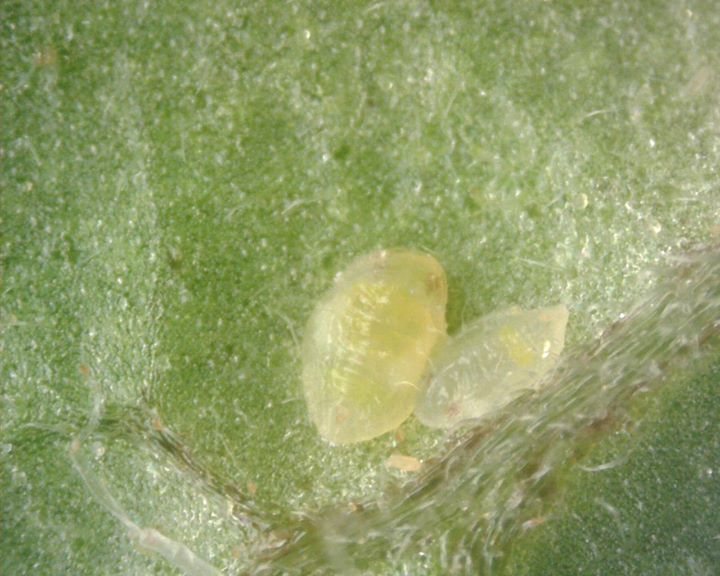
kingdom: Animalia
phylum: Arthropoda
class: Insecta
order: Hemiptera
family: Aleyrodidae
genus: Bemisia
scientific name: Bemisia tabaci
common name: Sweetpotato whitefly
